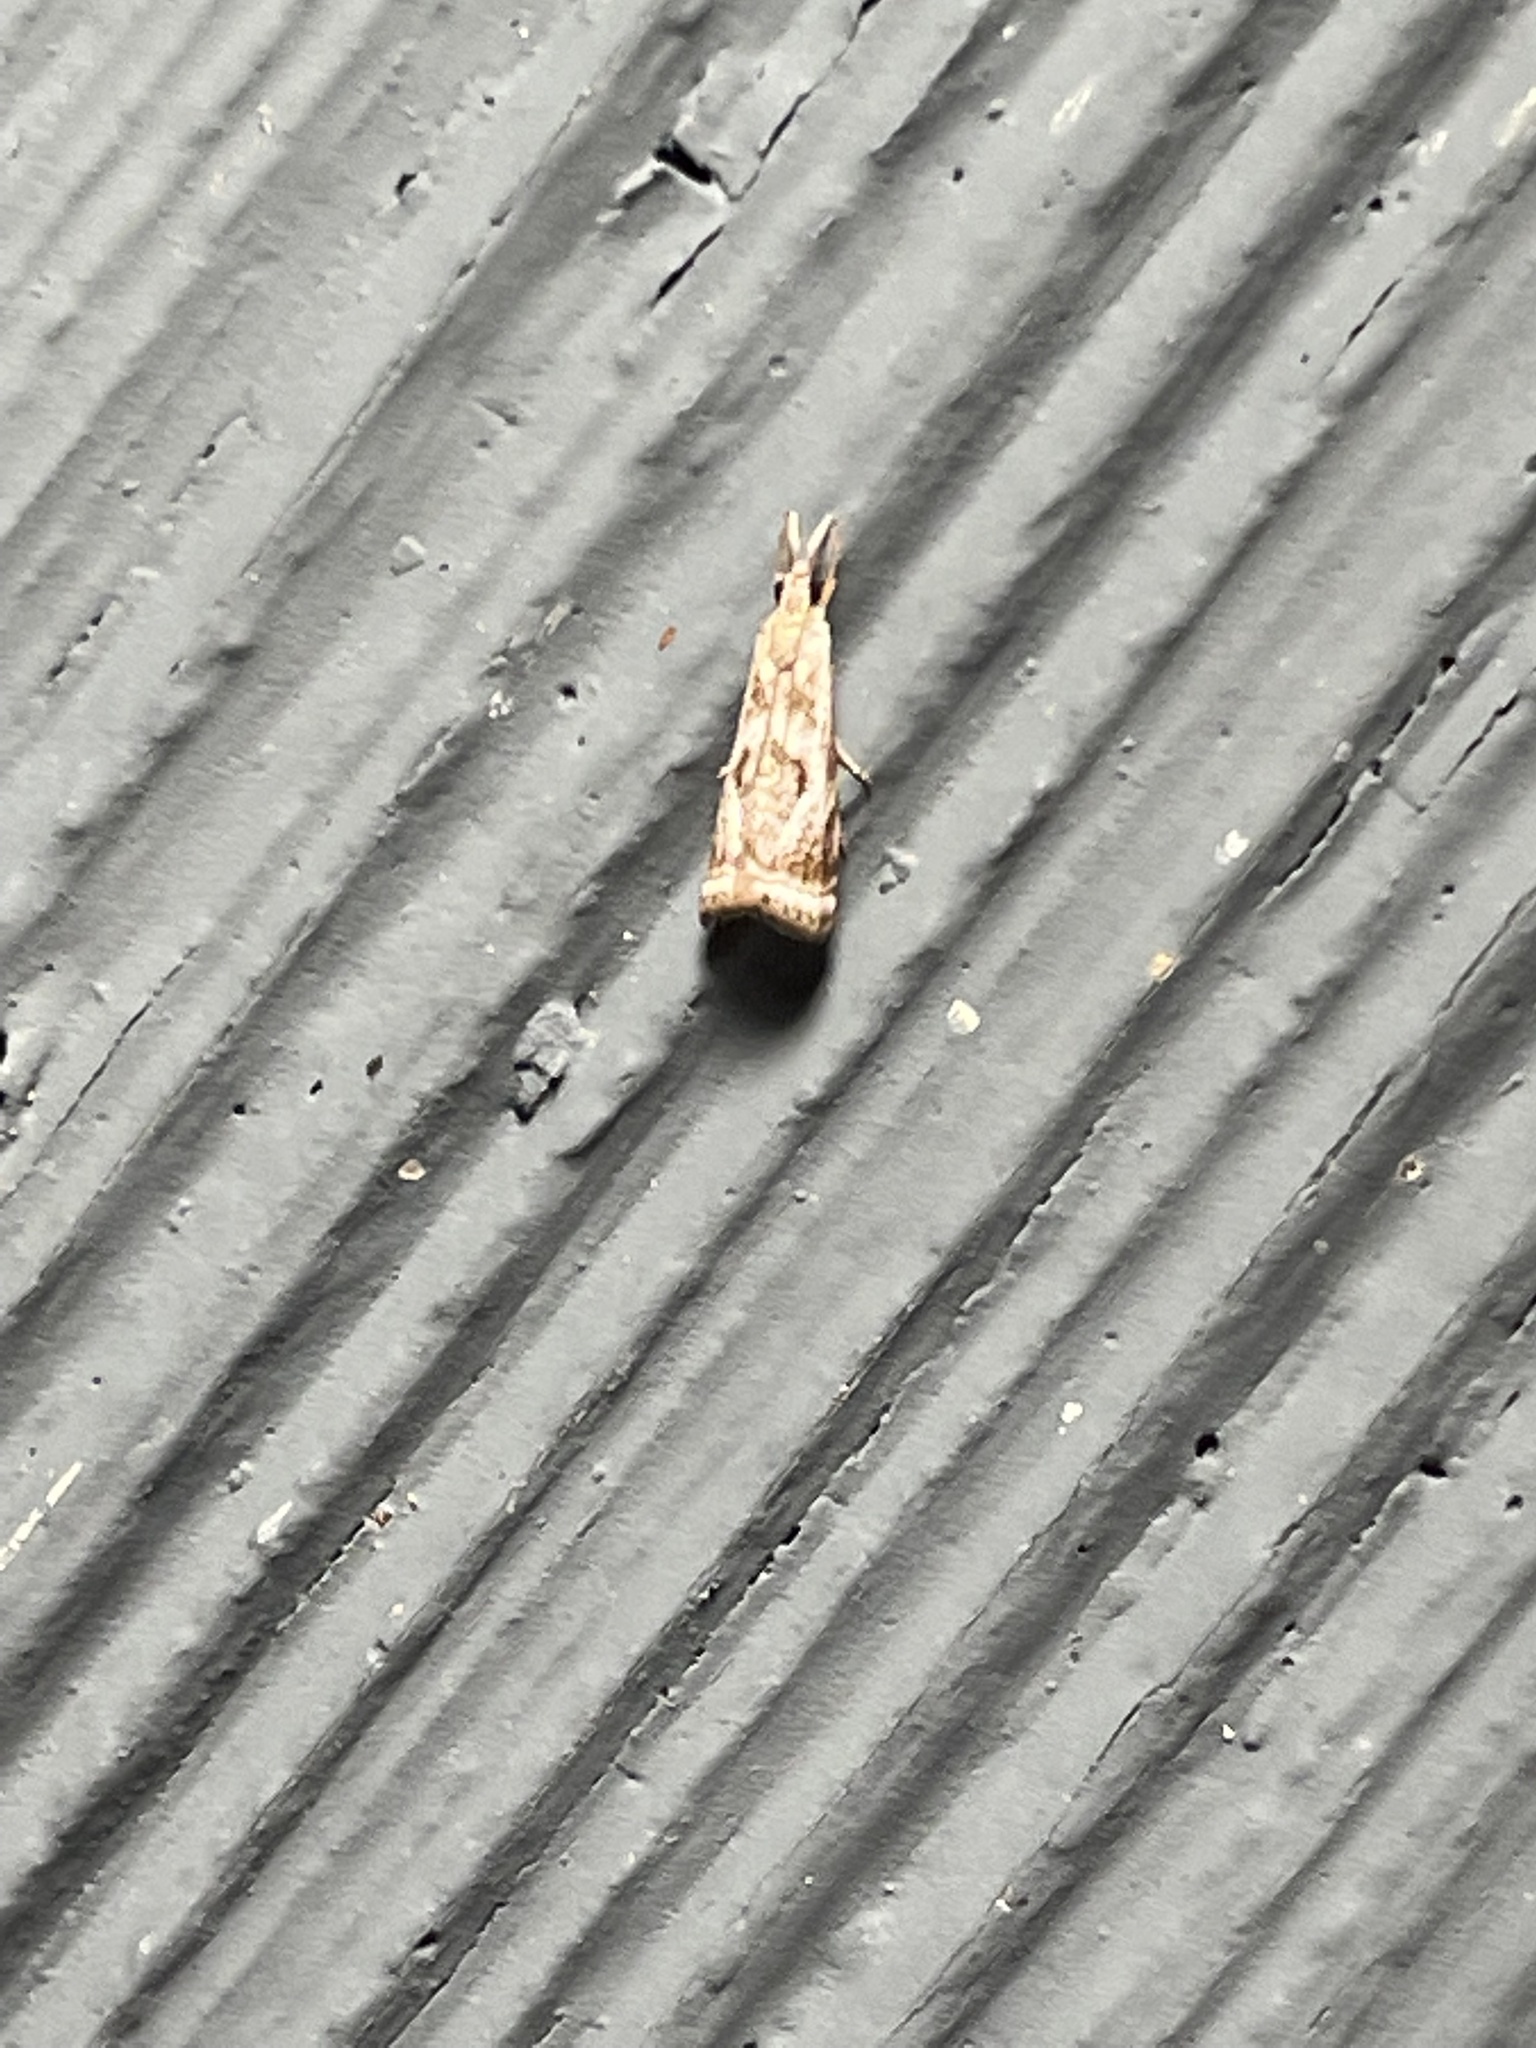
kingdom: Animalia
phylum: Arthropoda
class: Insecta
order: Lepidoptera
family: Crambidae
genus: Microcrambus
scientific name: Microcrambus elegans
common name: Elegant grass-veneer
